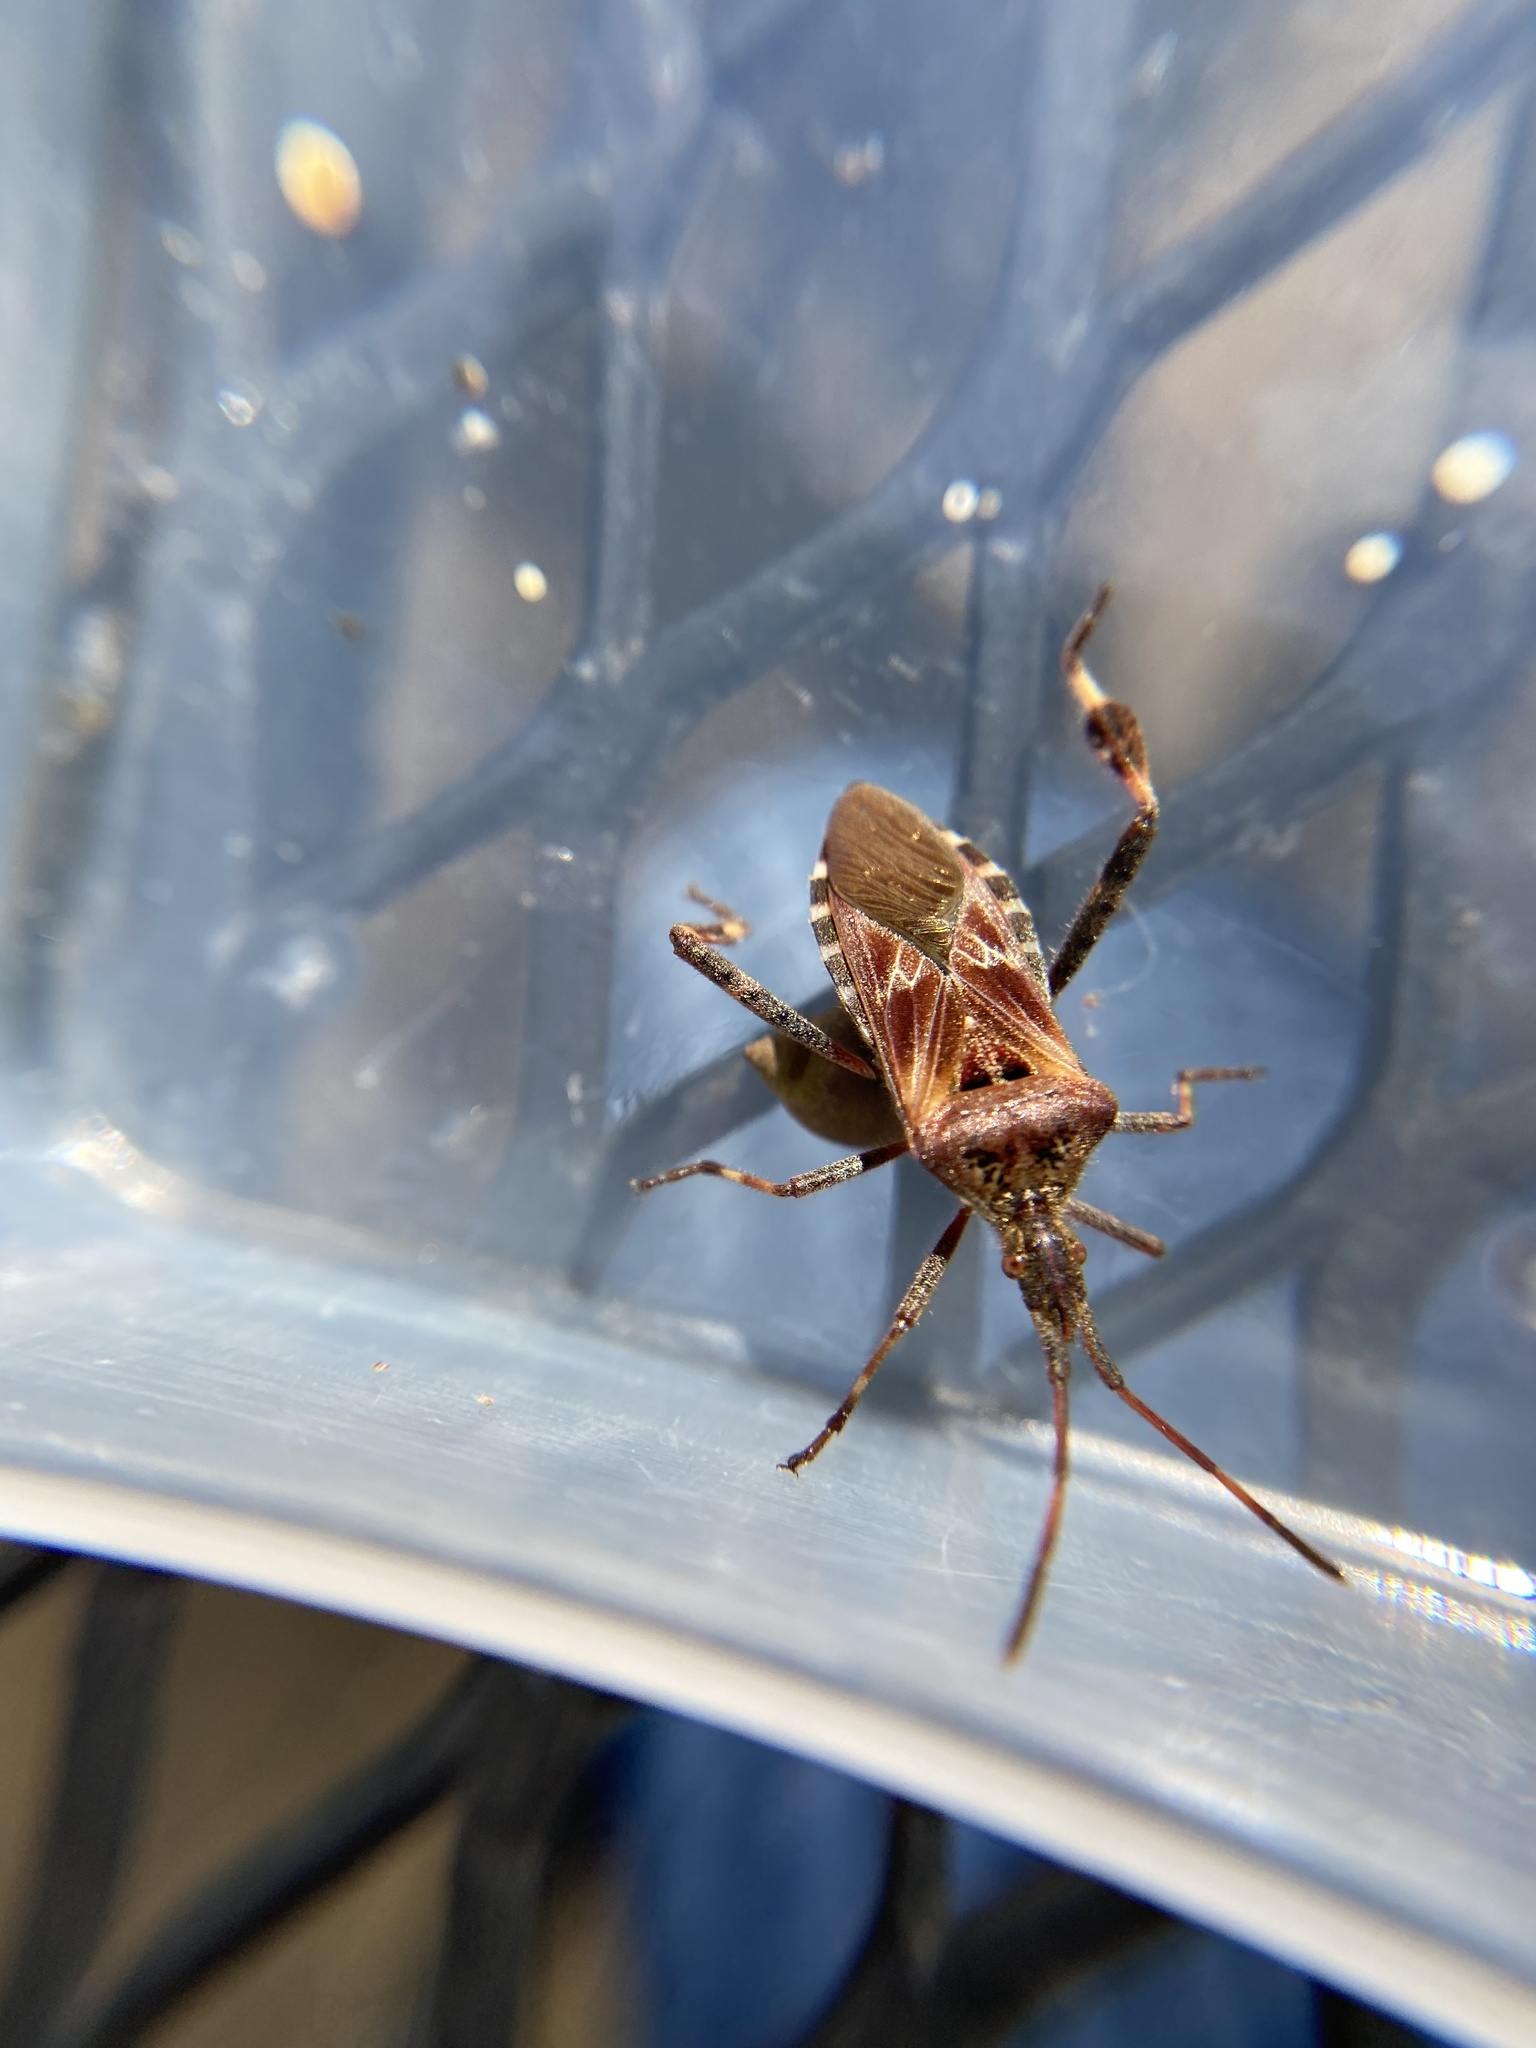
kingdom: Animalia
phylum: Arthropoda
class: Insecta
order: Hemiptera
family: Coreidae
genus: Leptoglossus
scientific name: Leptoglossus occidentalis
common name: Western conifer-seed bug
